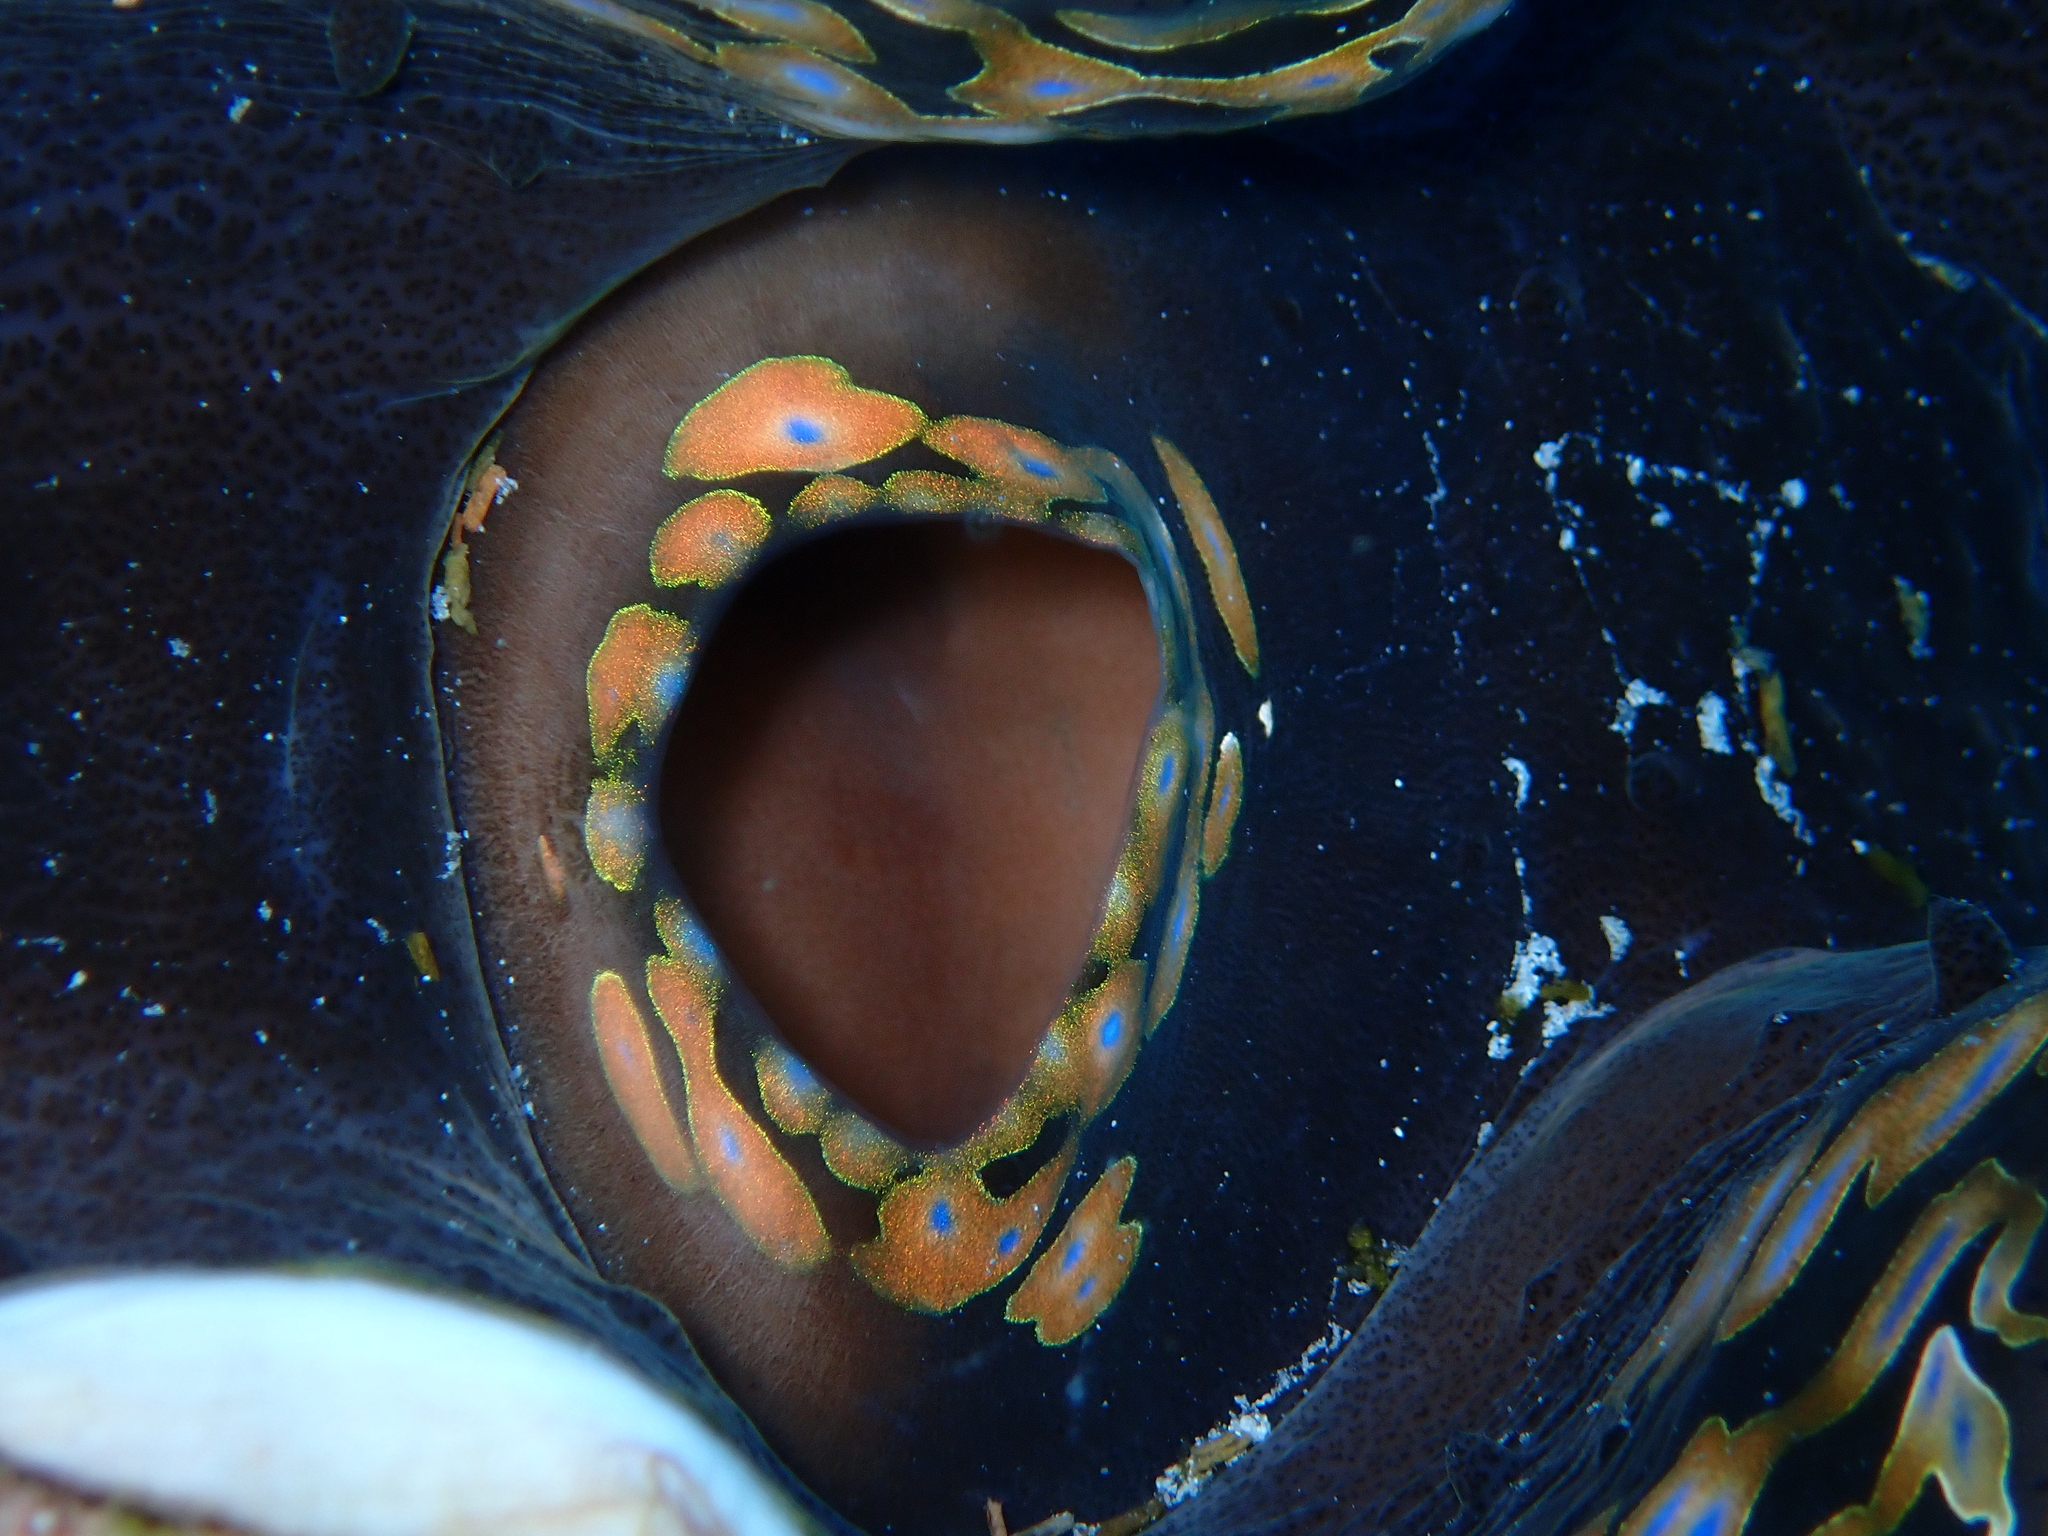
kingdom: Animalia
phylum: Mollusca
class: Bivalvia
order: Cardiida
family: Cardiidae
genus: Tridacna
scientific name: Tridacna squamosa
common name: Fluted clam
